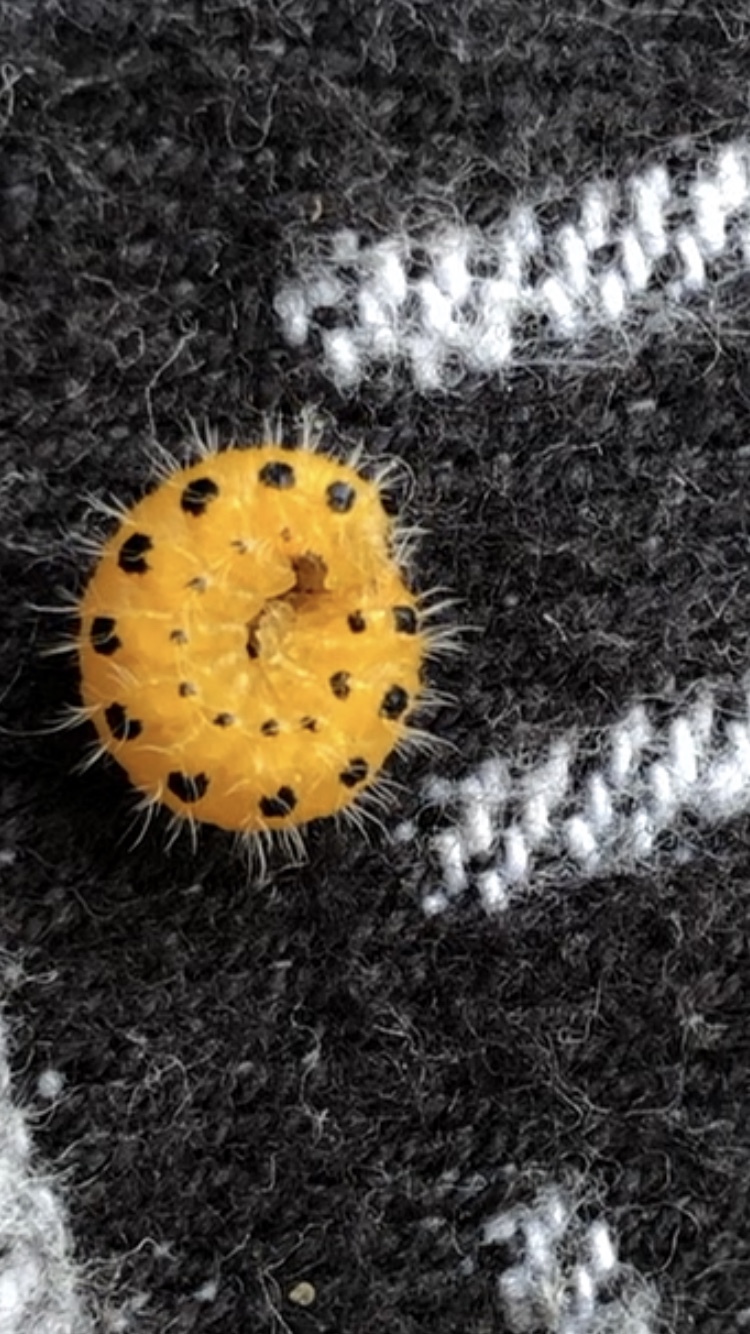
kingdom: Animalia
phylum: Arthropoda
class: Insecta
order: Hymenoptera
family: Tenthredinidae
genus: Cladius
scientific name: Cladius grandis
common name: Common sawfly
